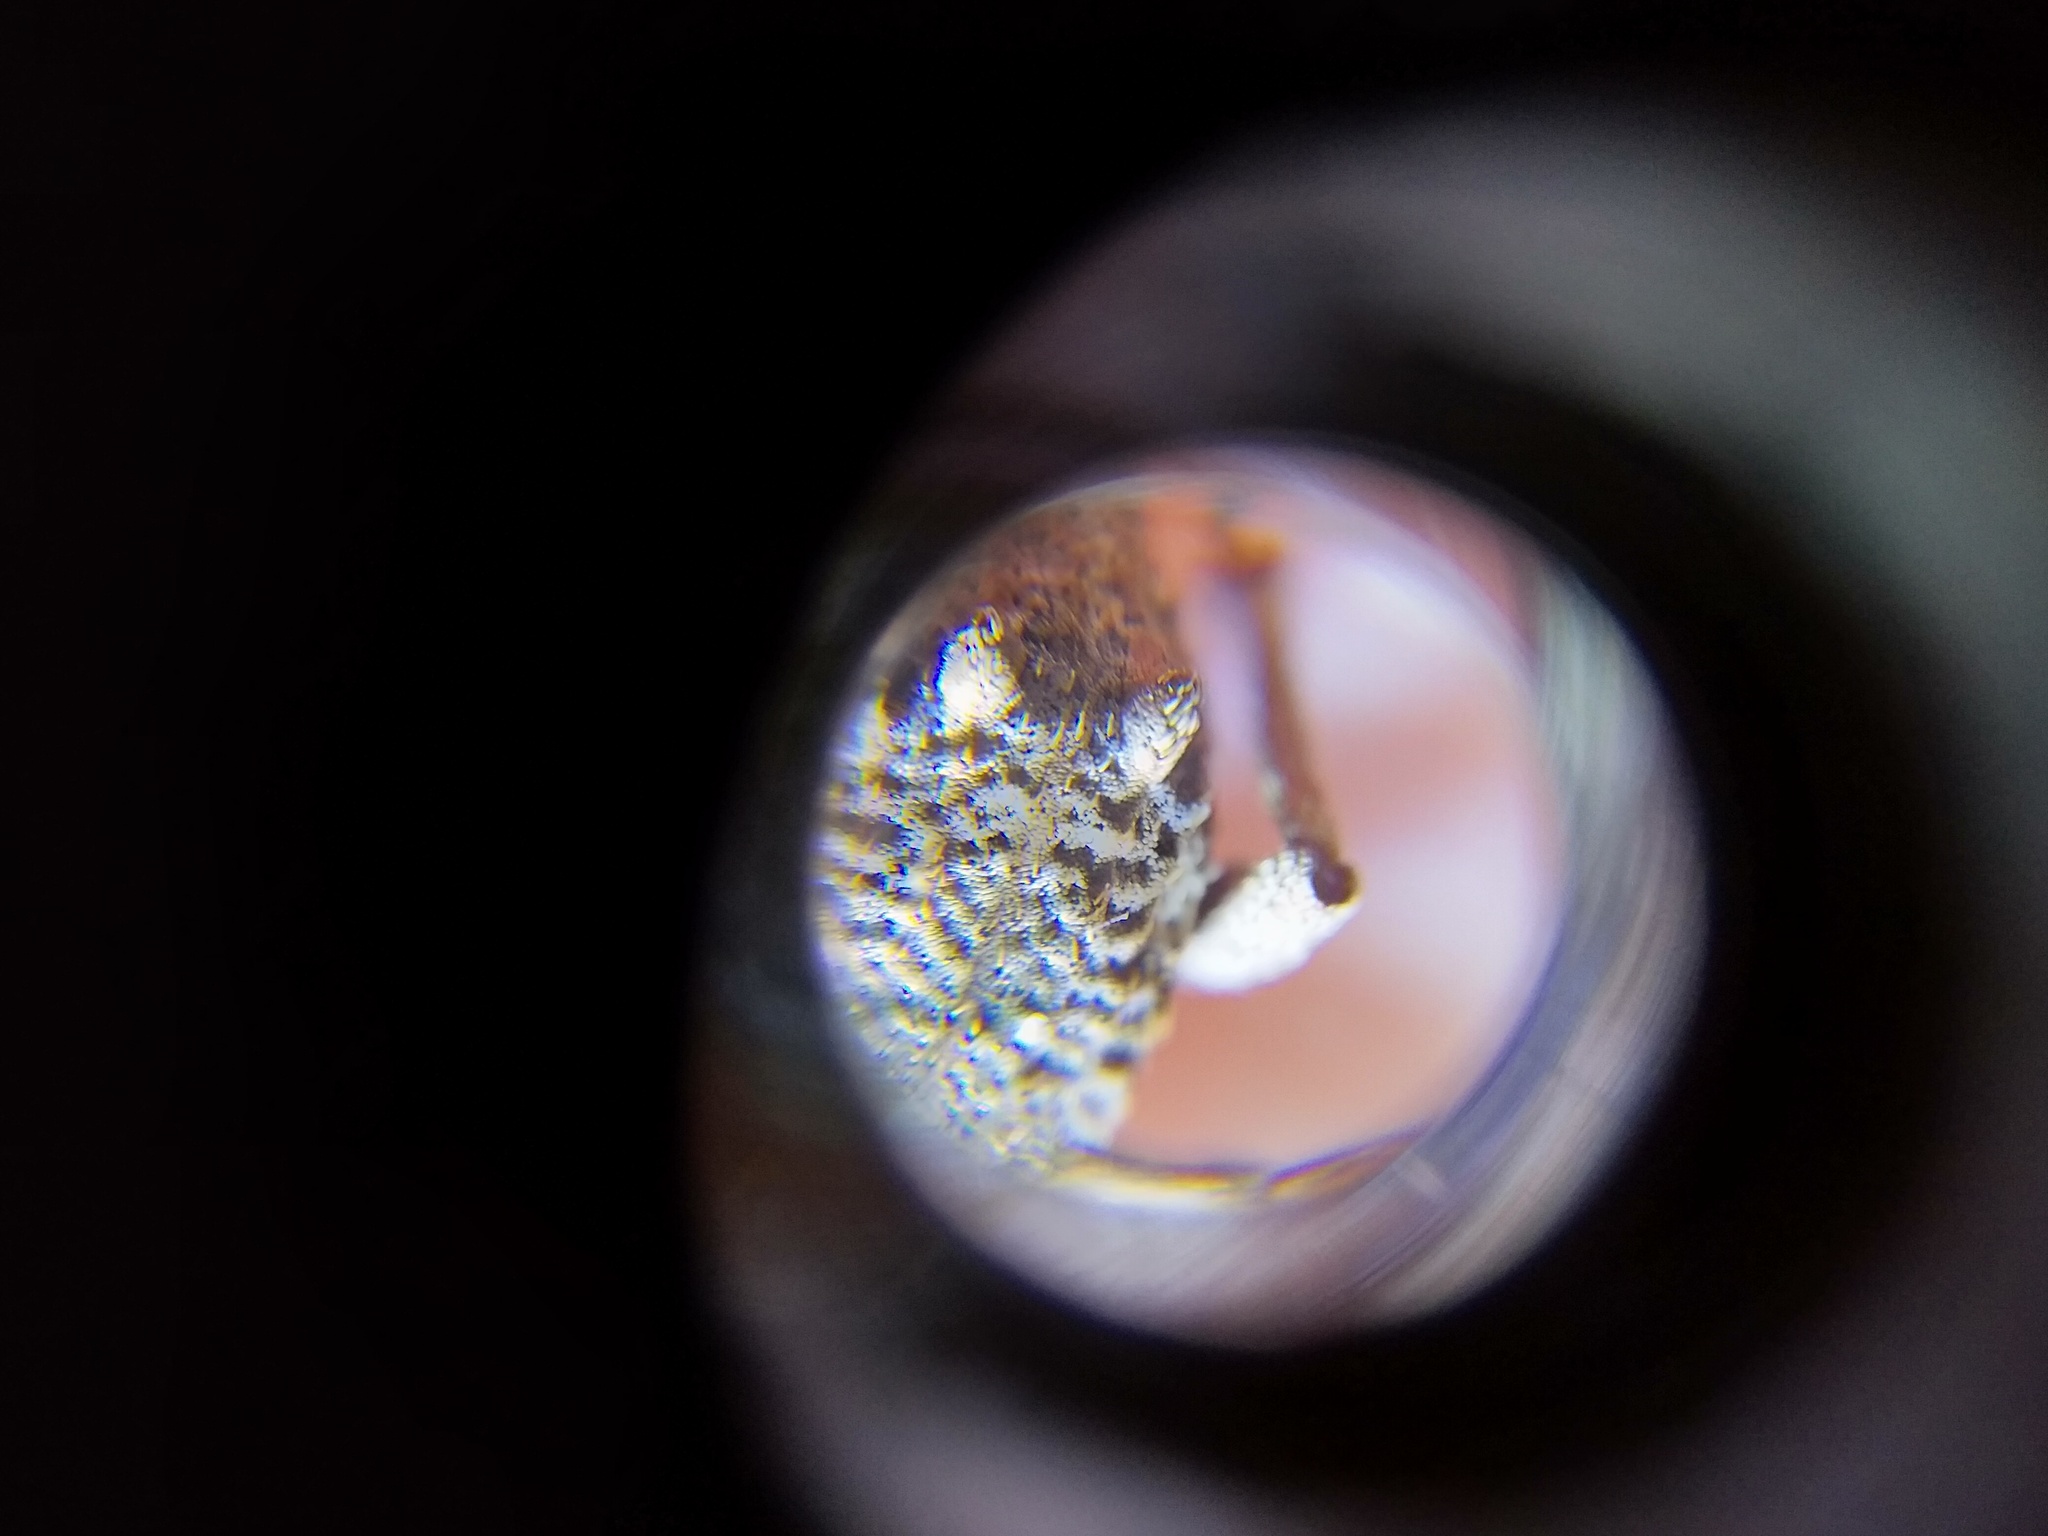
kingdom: Animalia
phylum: Arthropoda
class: Insecta
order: Coleoptera
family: Curculionidae
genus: Catoptes
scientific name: Catoptes binodis
